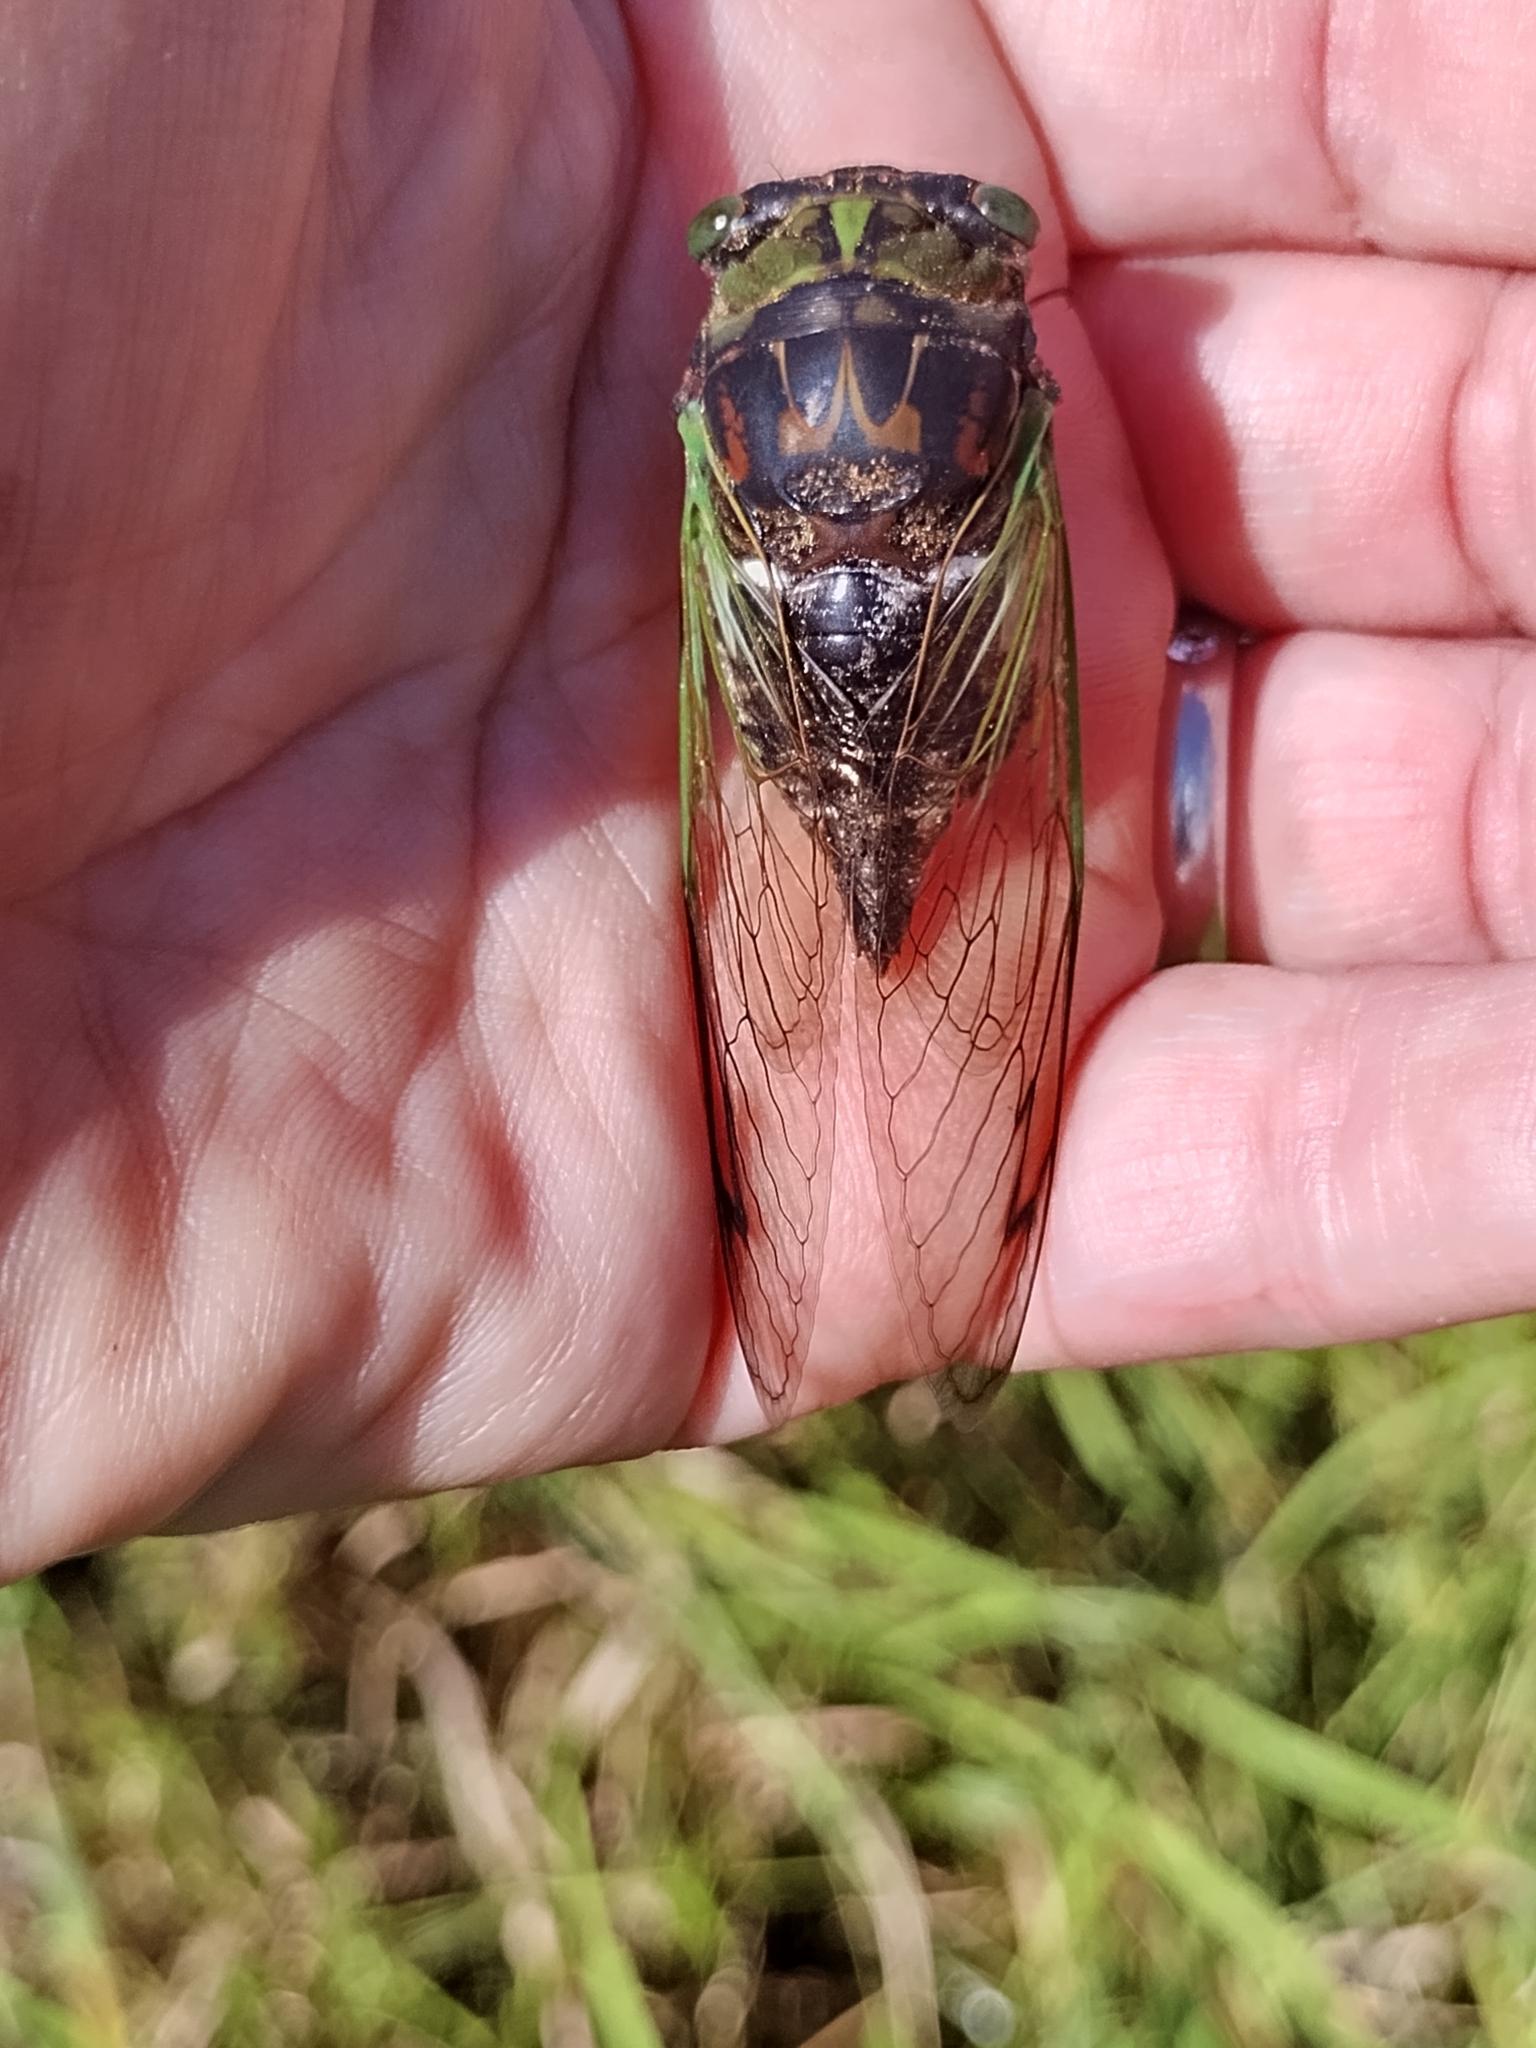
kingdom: Animalia
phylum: Arthropoda
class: Insecta
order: Hemiptera
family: Cicadidae
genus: Neotibicen
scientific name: Neotibicen tibicen
